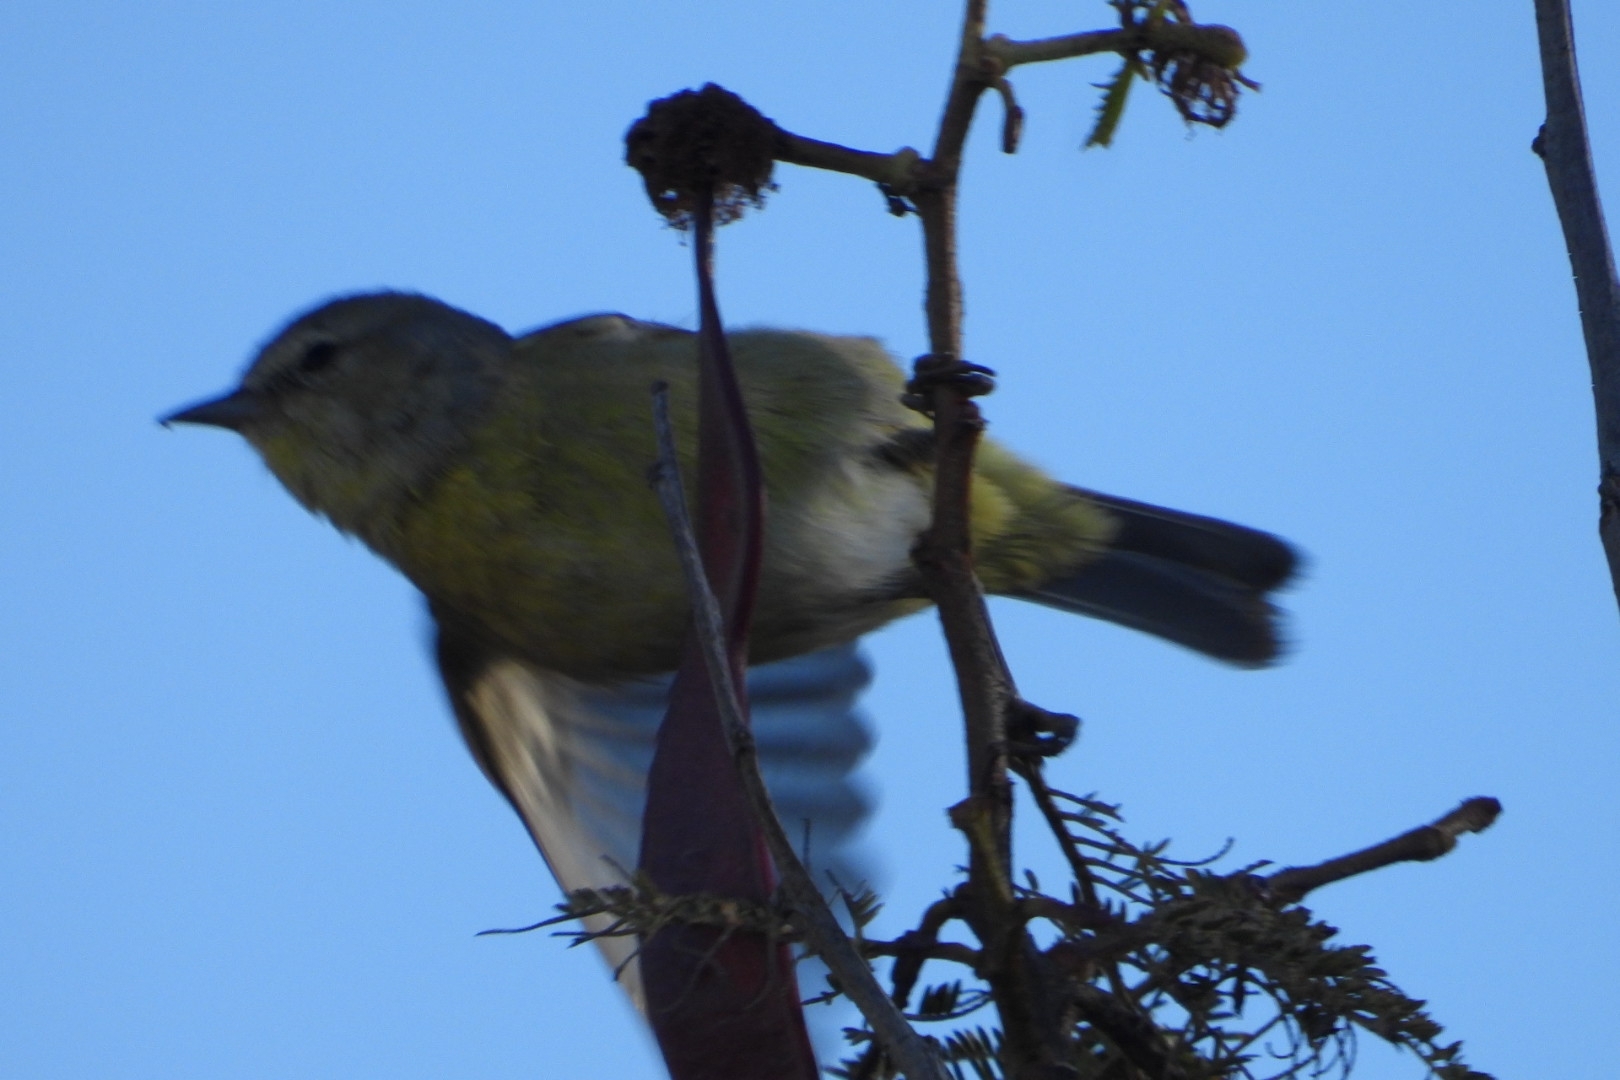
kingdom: Animalia
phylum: Chordata
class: Aves
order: Passeriformes
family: Parulidae
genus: Leiothlypis
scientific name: Leiothlypis celata
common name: Orange-crowned warbler
